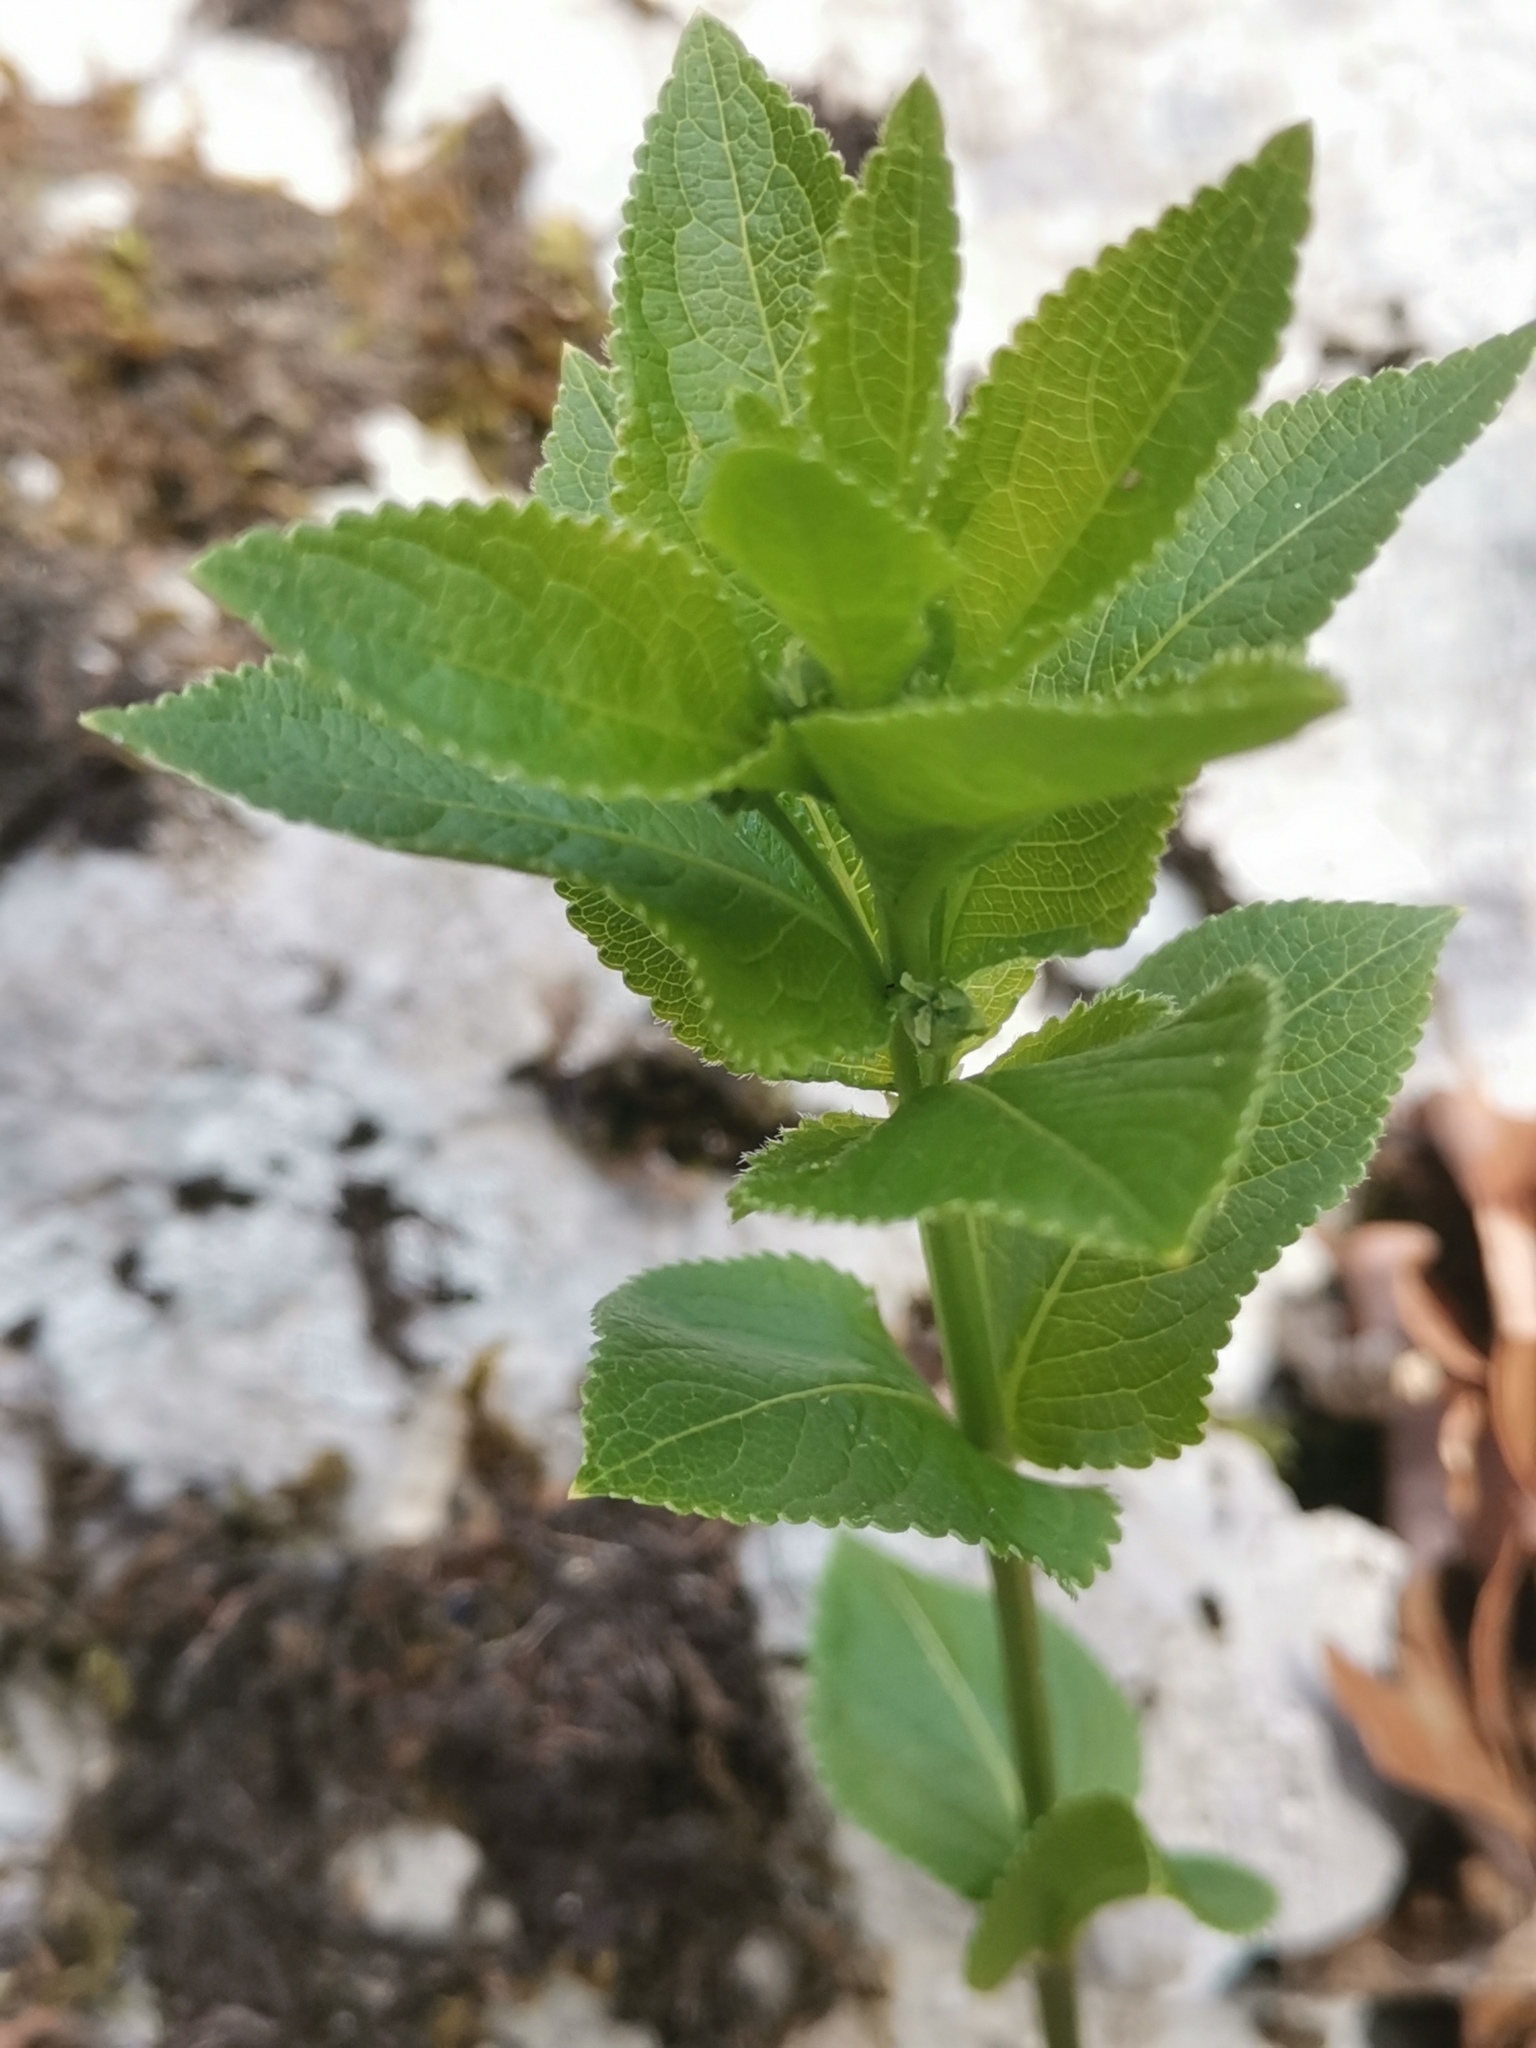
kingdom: Plantae
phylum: Tracheophyta
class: Magnoliopsida
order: Malpighiales
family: Euphorbiaceae
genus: Mercurialis
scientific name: Mercurialis ovata
